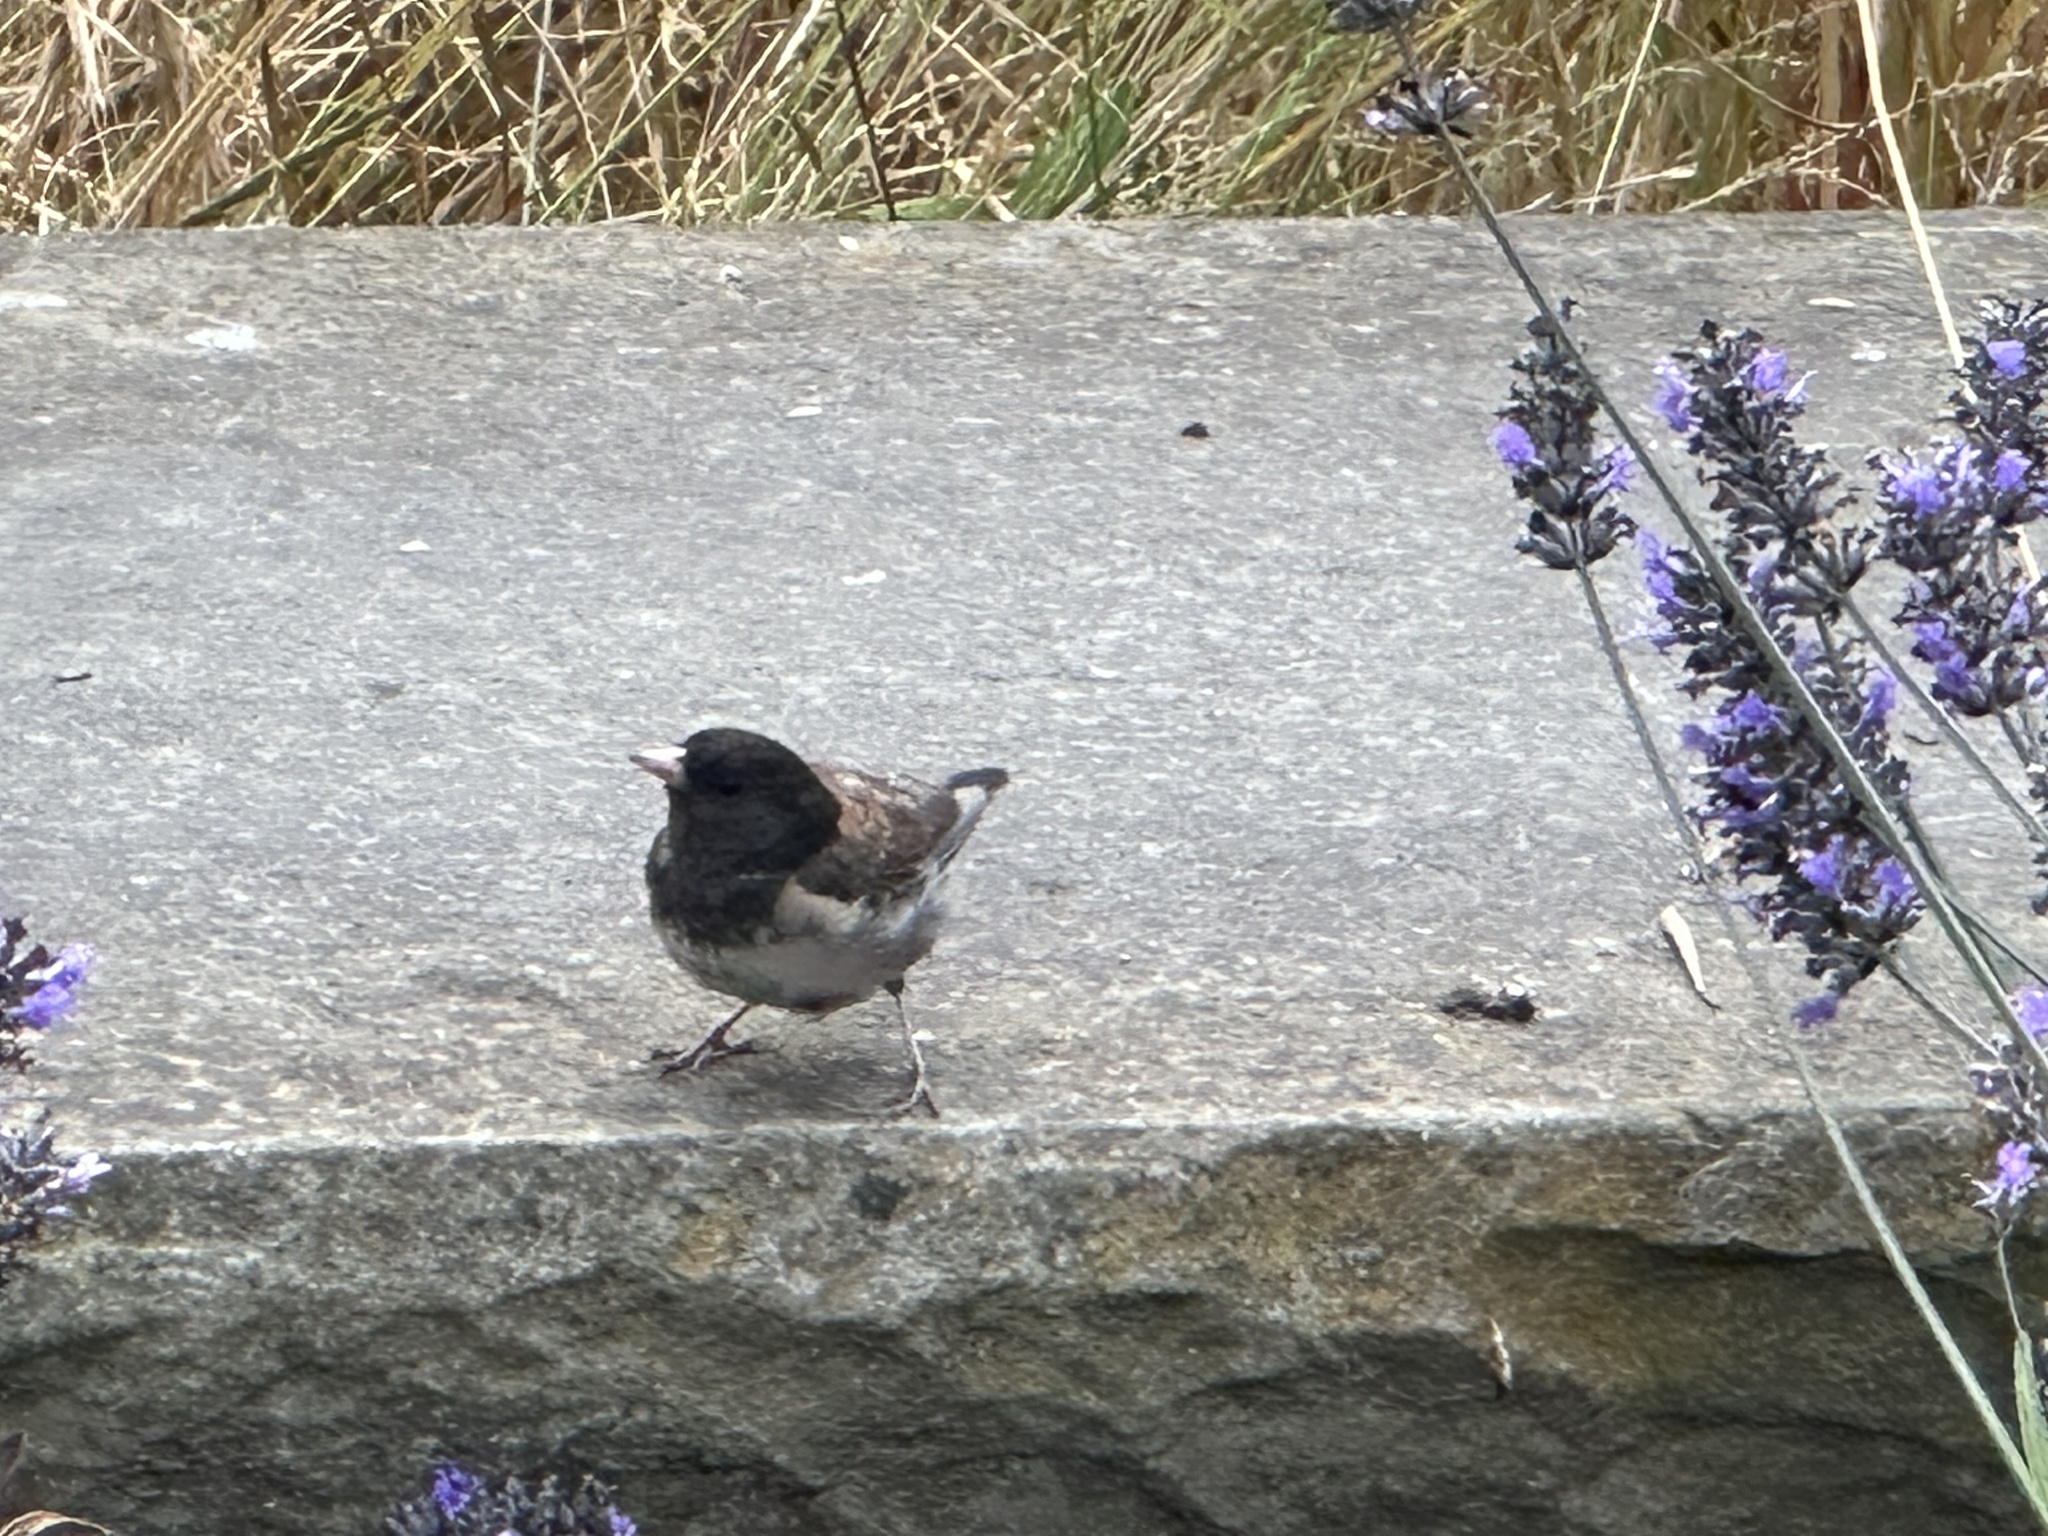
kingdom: Animalia
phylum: Chordata
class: Aves
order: Passeriformes
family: Passerellidae
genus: Junco
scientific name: Junco hyemalis
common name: Dark-eyed junco
